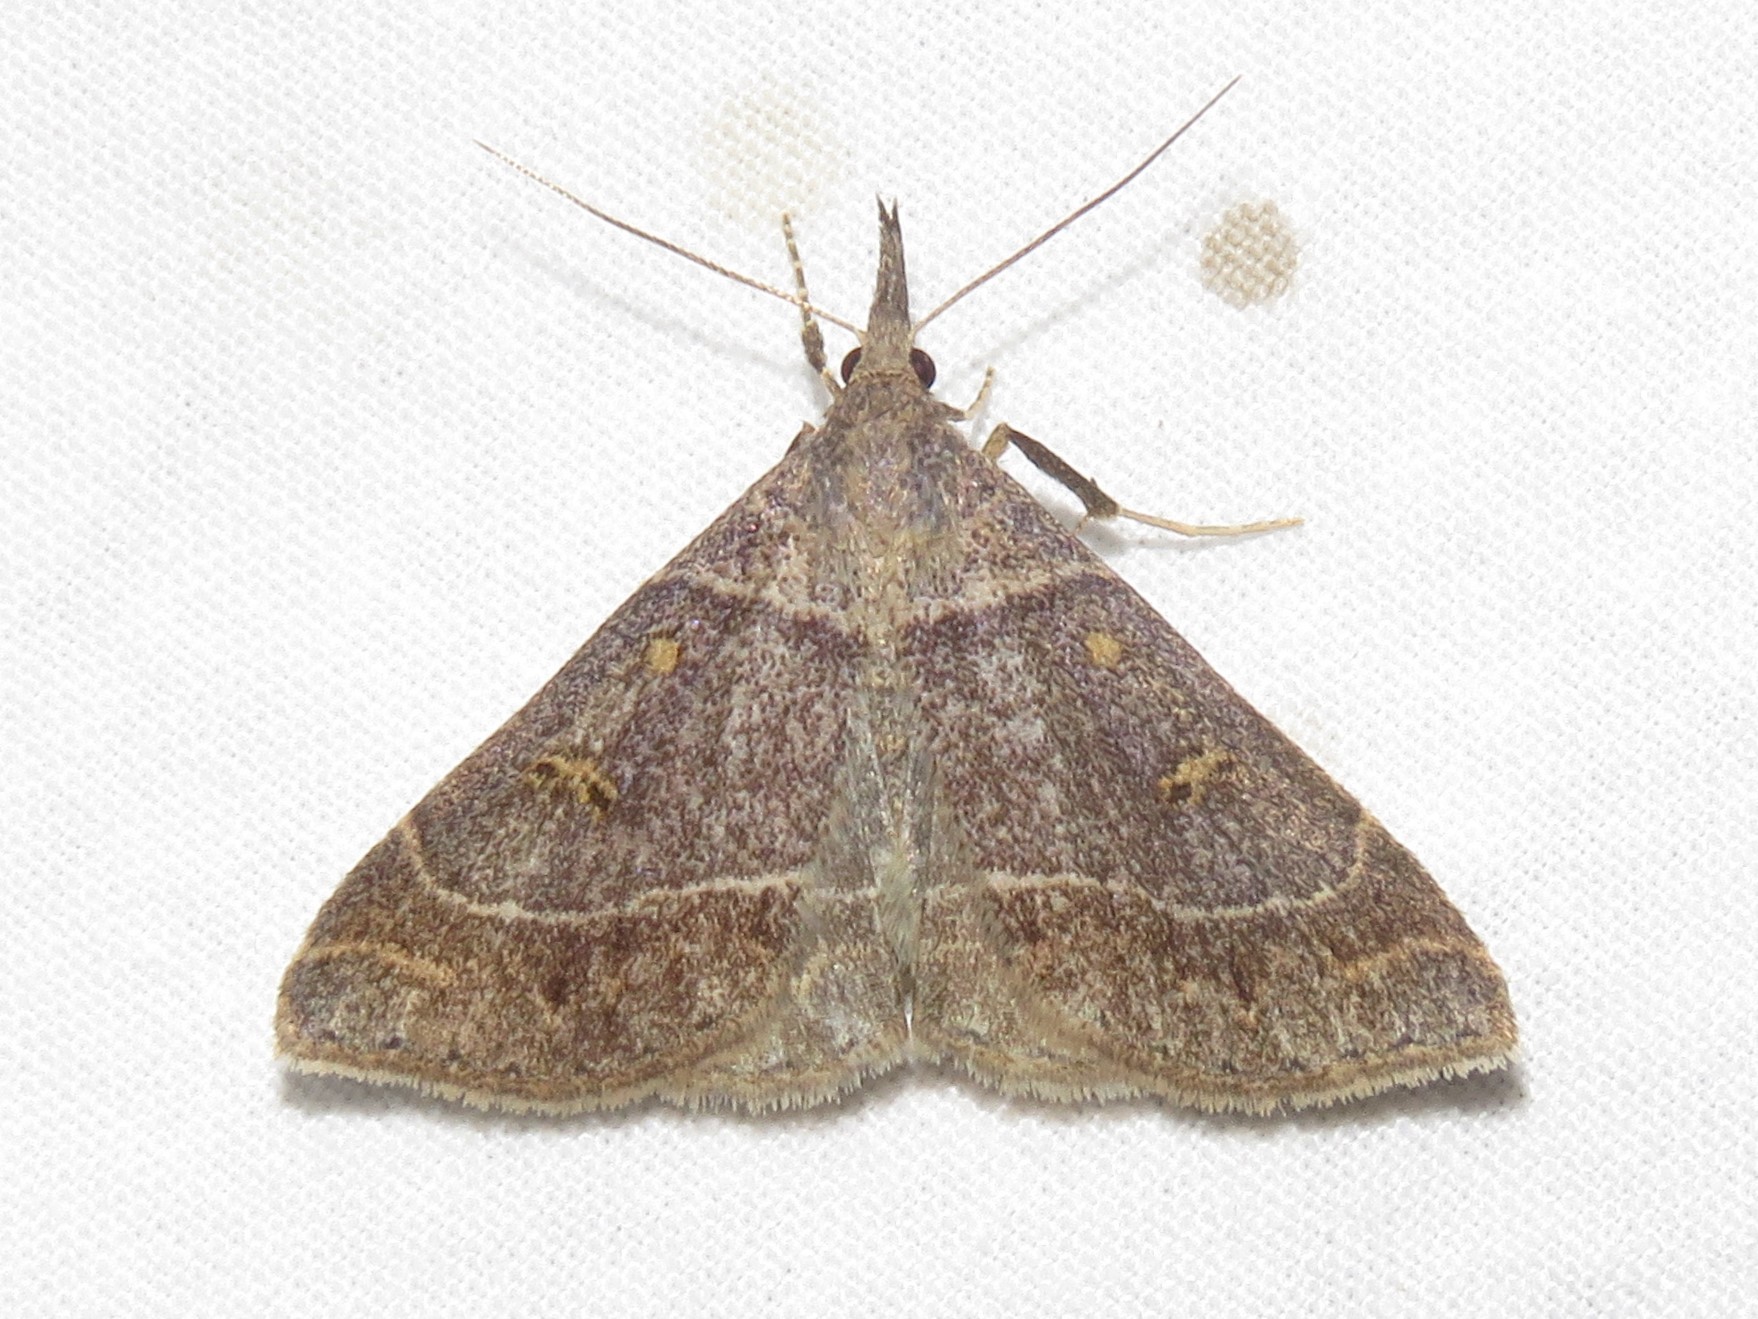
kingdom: Animalia
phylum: Arthropoda
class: Insecta
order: Lepidoptera
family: Erebidae
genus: Renia
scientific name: Renia flavipunctalis
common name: Yellow-spotted renia moth
